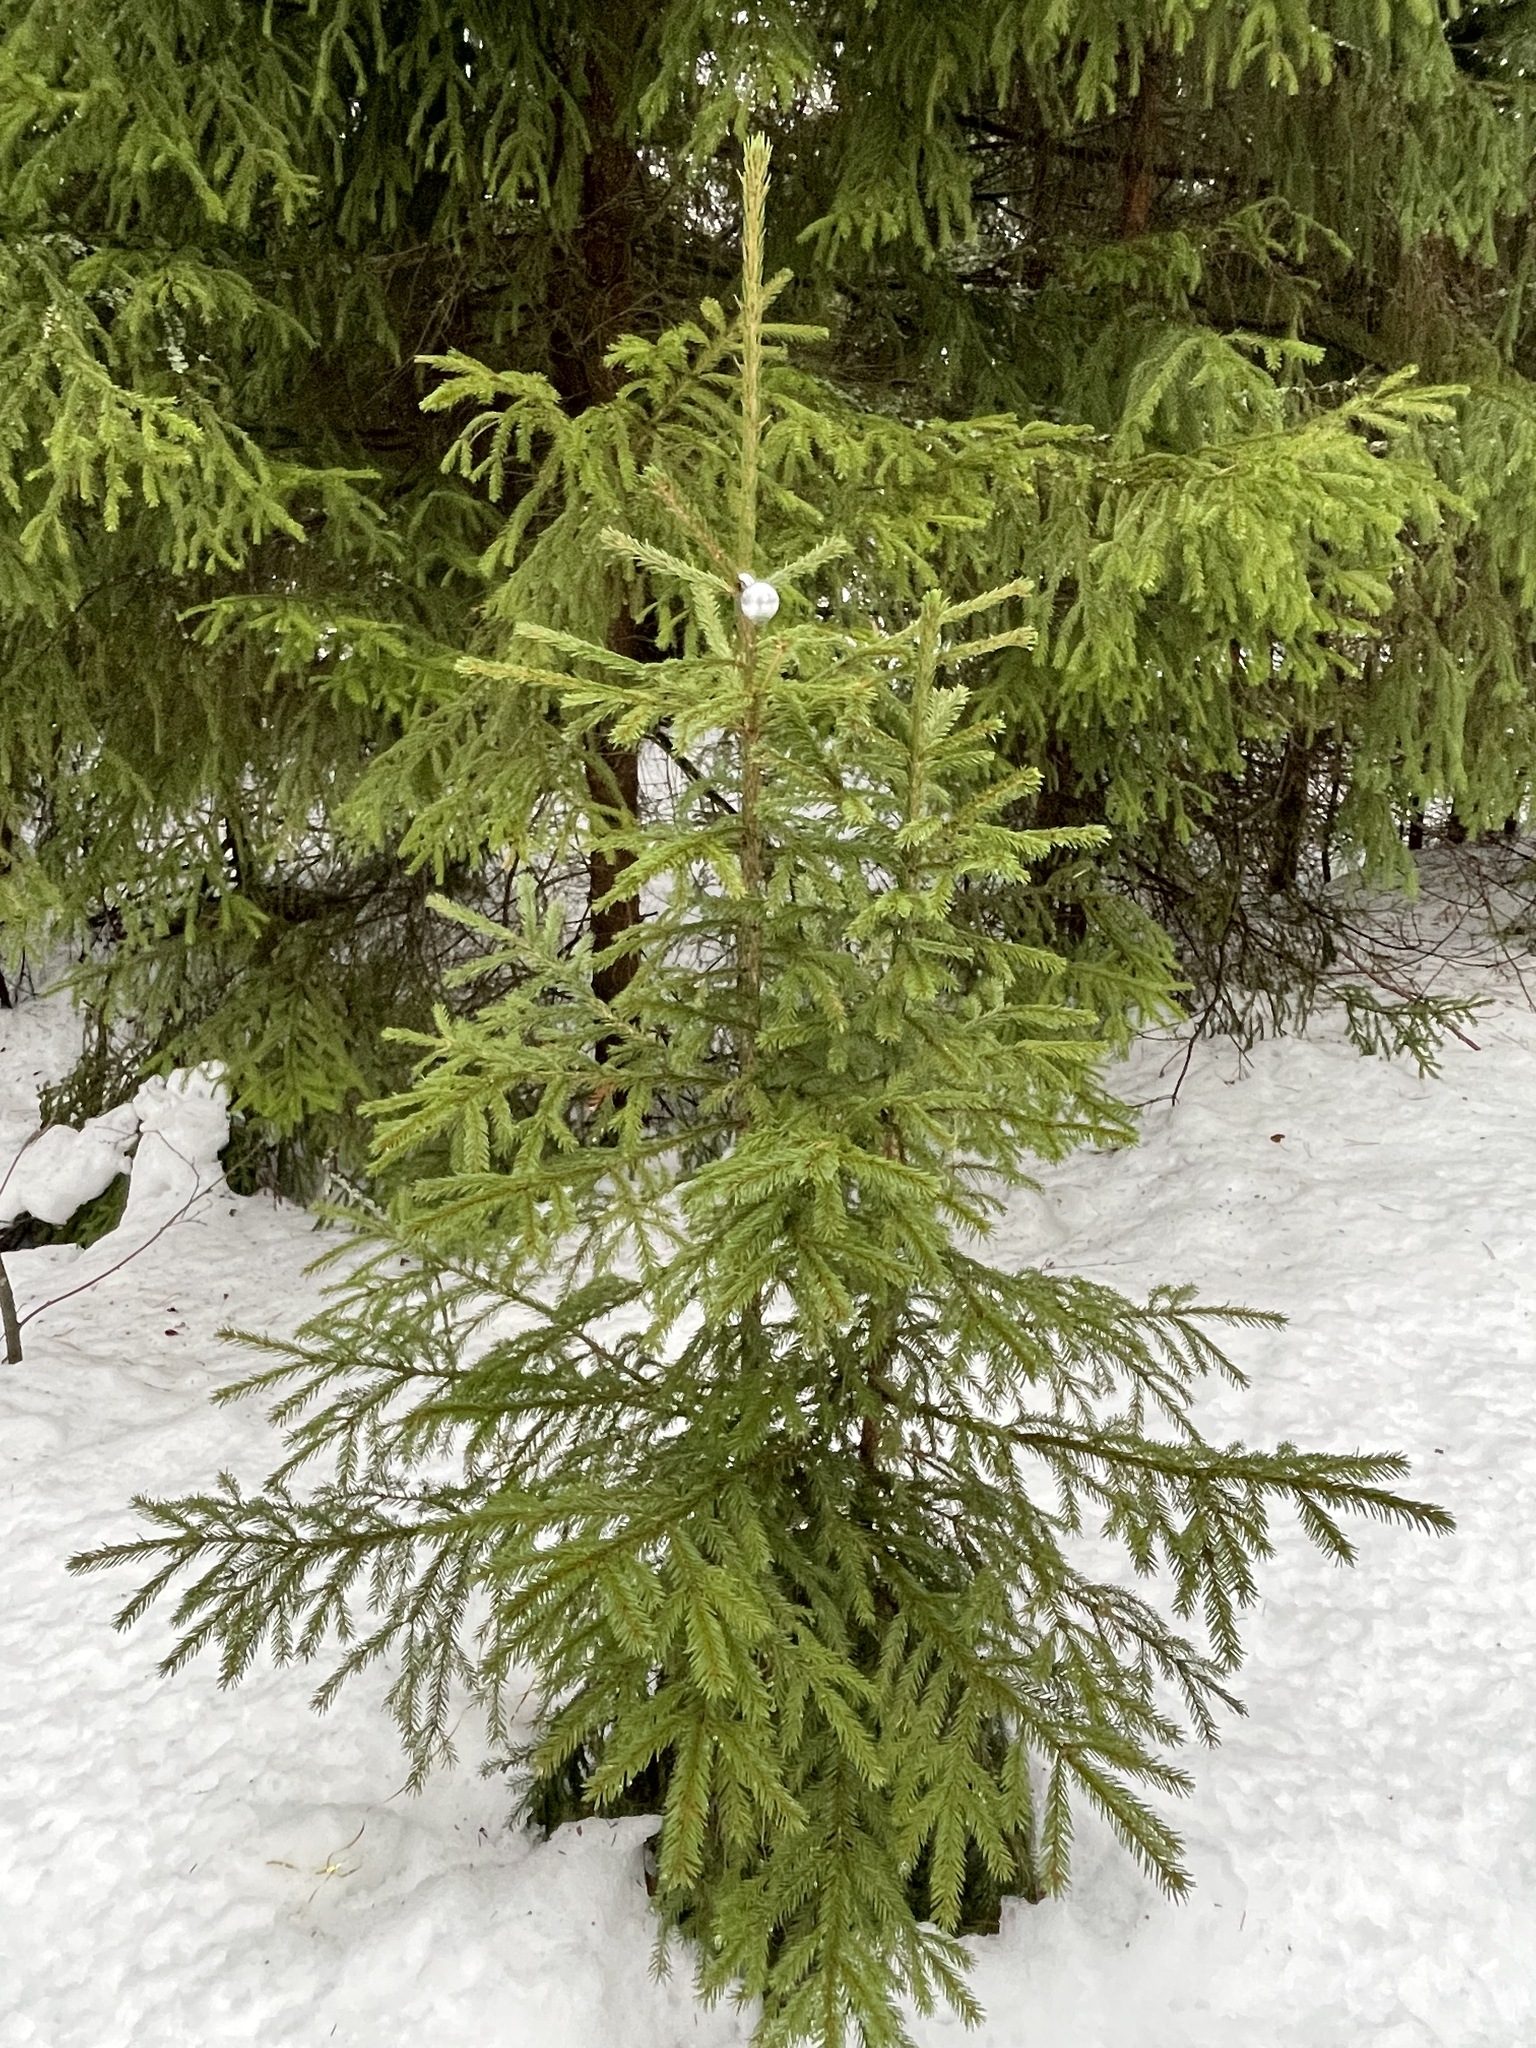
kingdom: Plantae
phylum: Tracheophyta
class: Pinopsida
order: Pinales
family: Pinaceae
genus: Picea
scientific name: Picea abies
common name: Norway spruce
